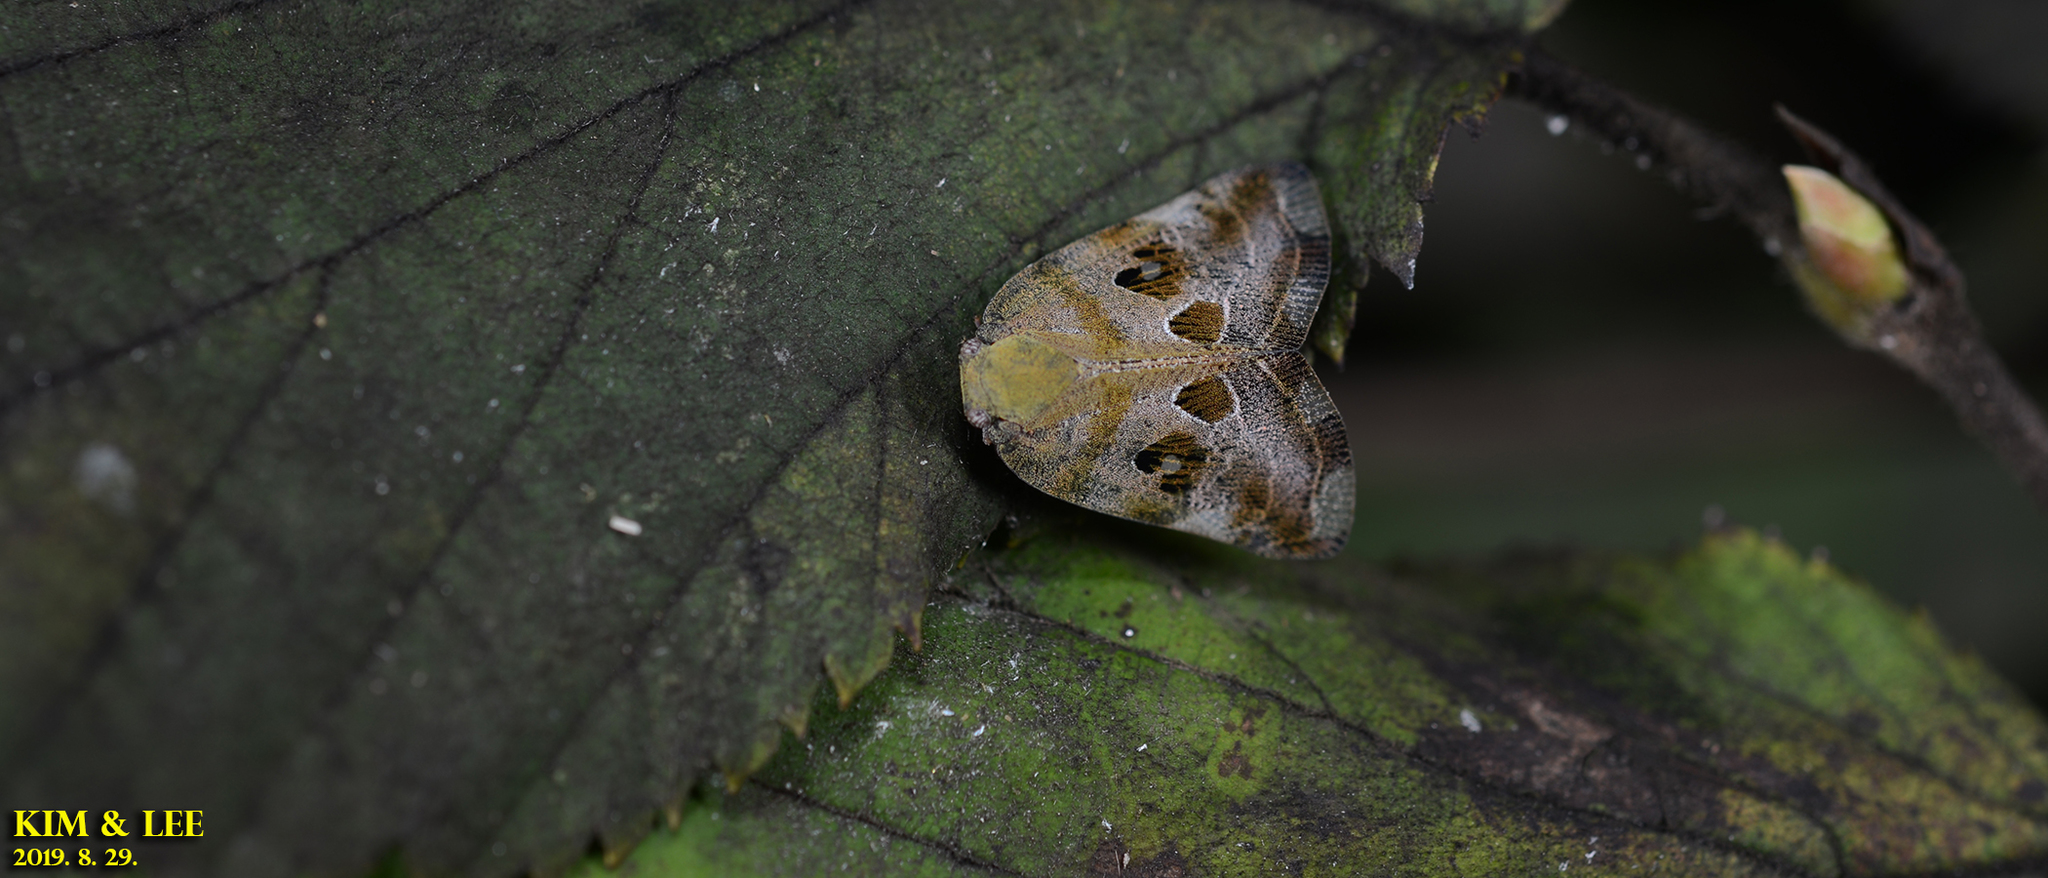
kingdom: Animalia
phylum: Arthropoda
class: Insecta
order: Hemiptera
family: Ricaniidae
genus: Ricania
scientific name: Ricania speculum
